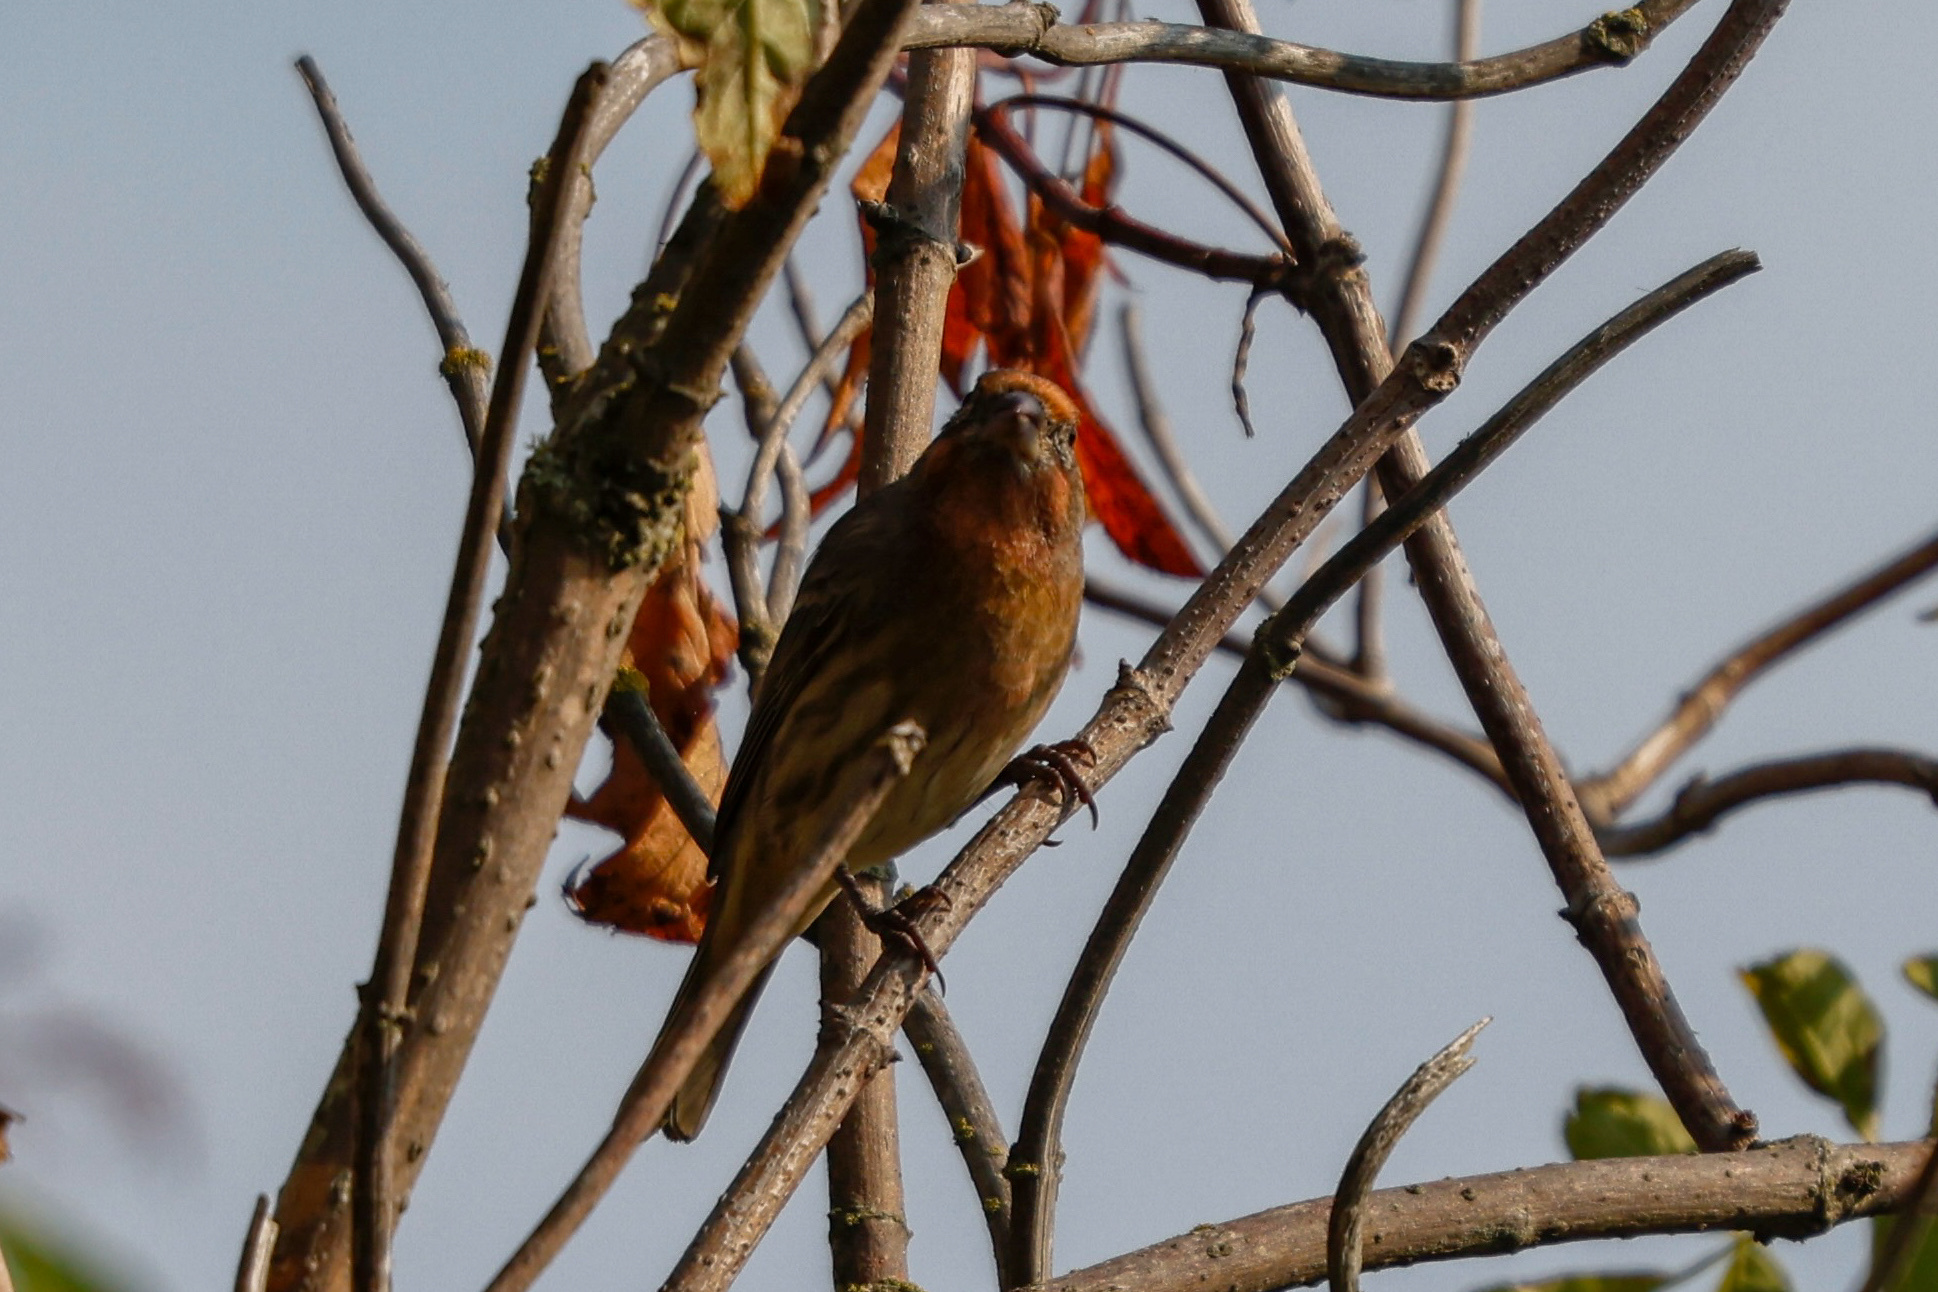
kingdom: Animalia
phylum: Chordata
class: Aves
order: Passeriformes
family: Fringillidae
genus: Haemorhous
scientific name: Haemorhous mexicanus
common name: House finch
